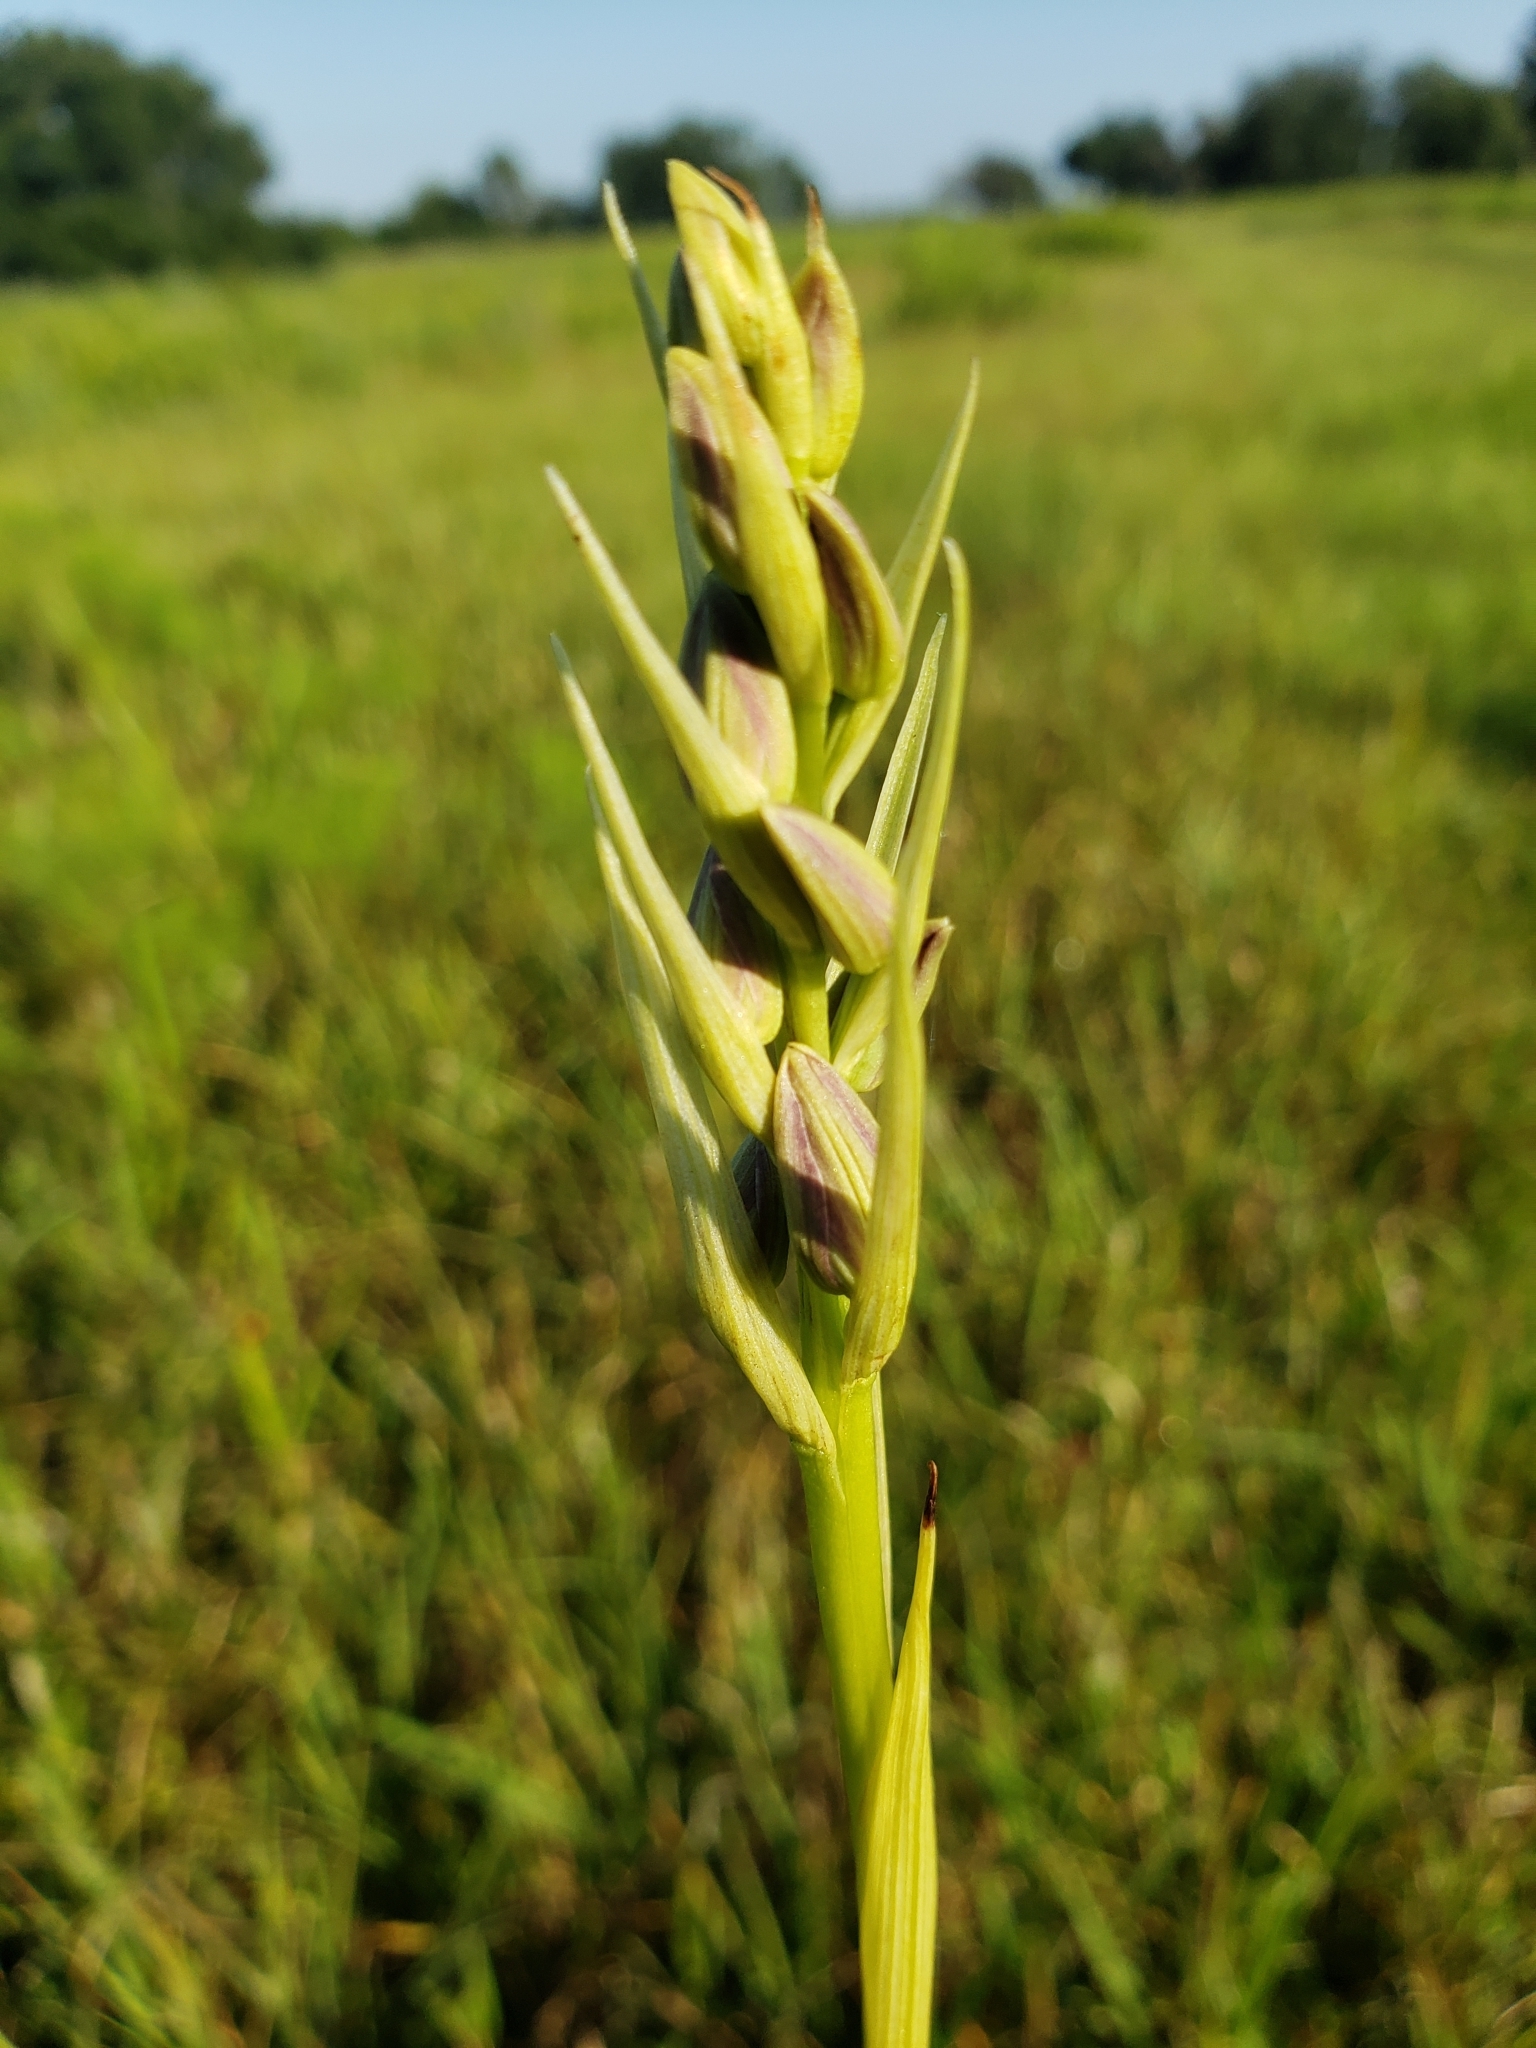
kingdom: Plantae
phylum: Tracheophyta
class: Liliopsida
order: Asparagales
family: Orchidaceae
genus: Eulophia
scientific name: Eulophia ecristata
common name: Giant orchid
